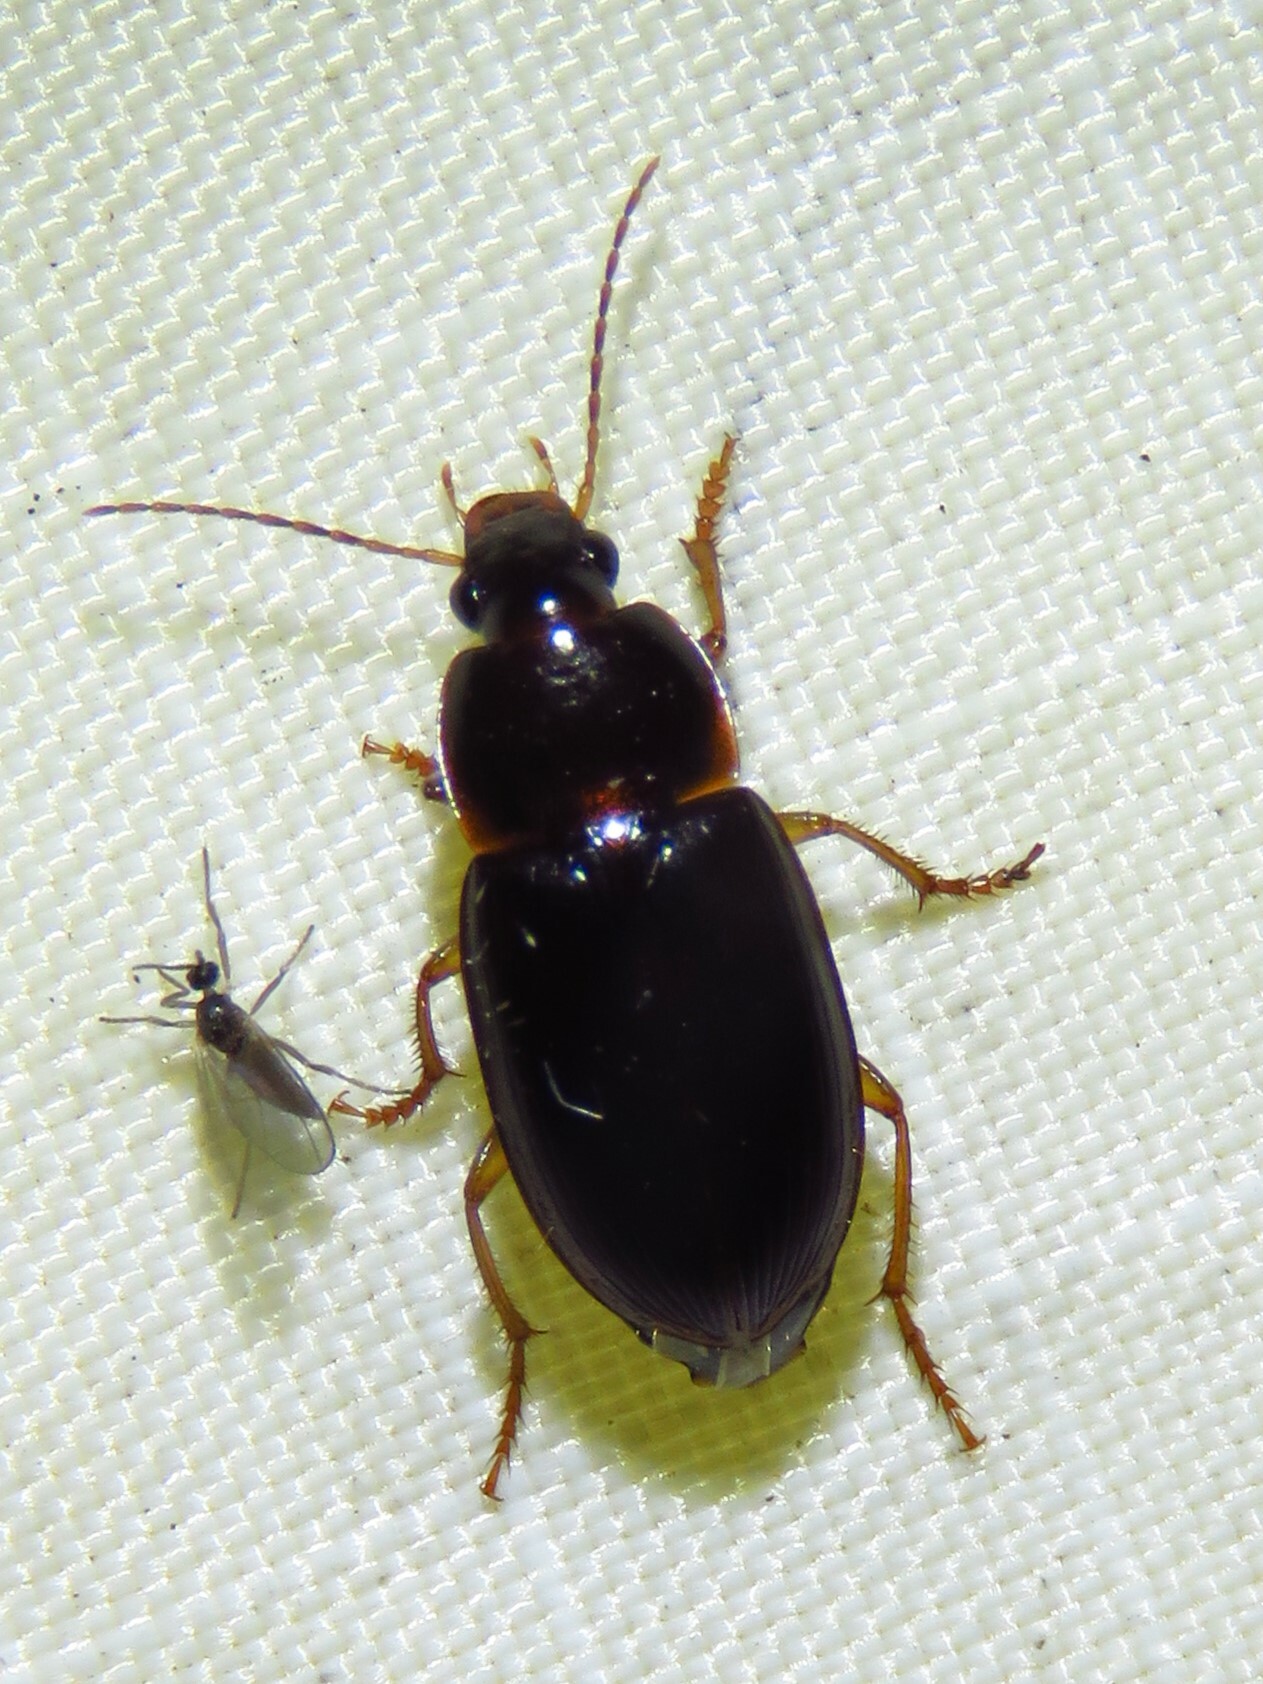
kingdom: Animalia
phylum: Arthropoda
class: Insecta
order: Coleoptera
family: Carabidae
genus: Notiobia
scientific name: Notiobia terminata
